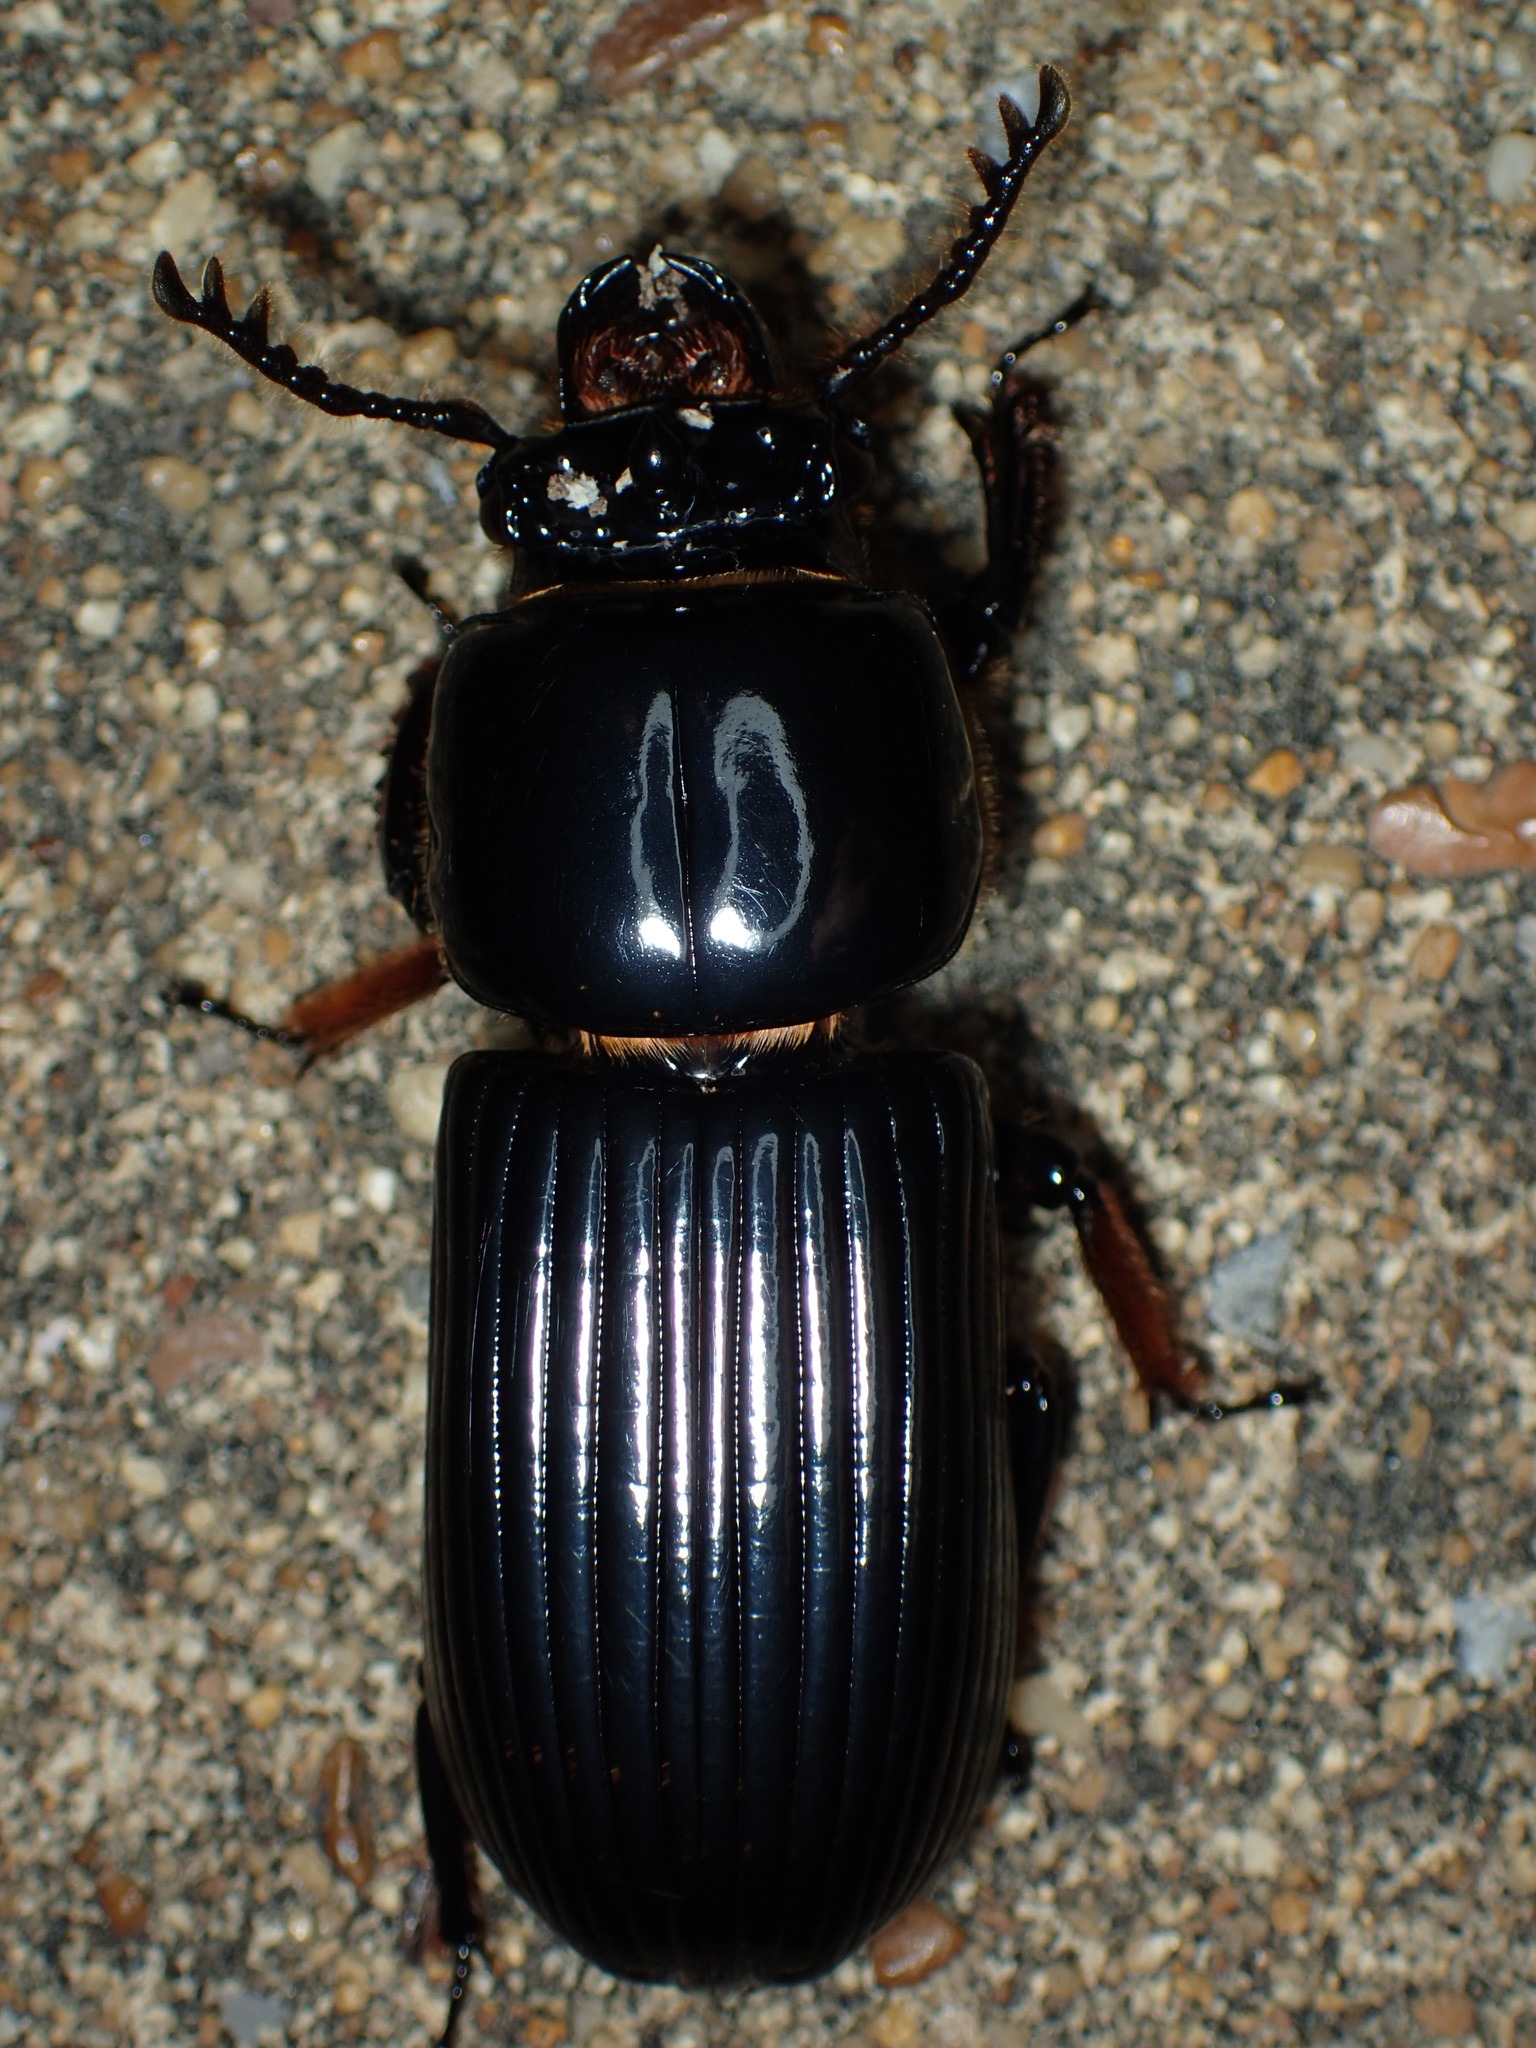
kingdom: Animalia
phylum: Arthropoda
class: Insecta
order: Coleoptera
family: Passalidae
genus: Odontotaenius
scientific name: Odontotaenius disjunctus
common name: Patent leather beetle
